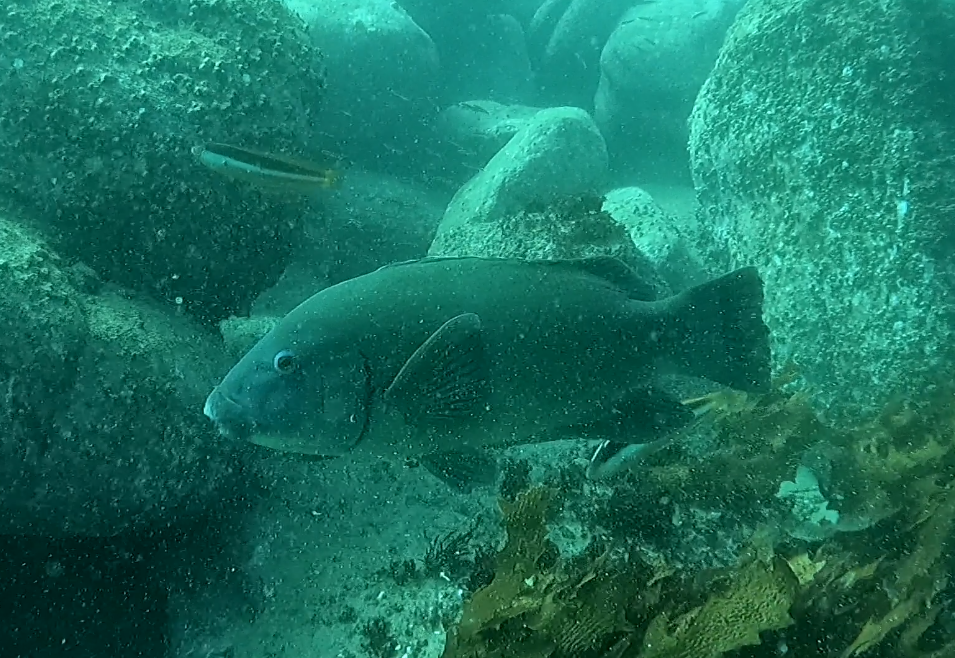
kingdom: Animalia
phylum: Chordata
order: Perciformes
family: Labridae
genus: Achoerodus
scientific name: Achoerodus viridis
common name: Brown groper
